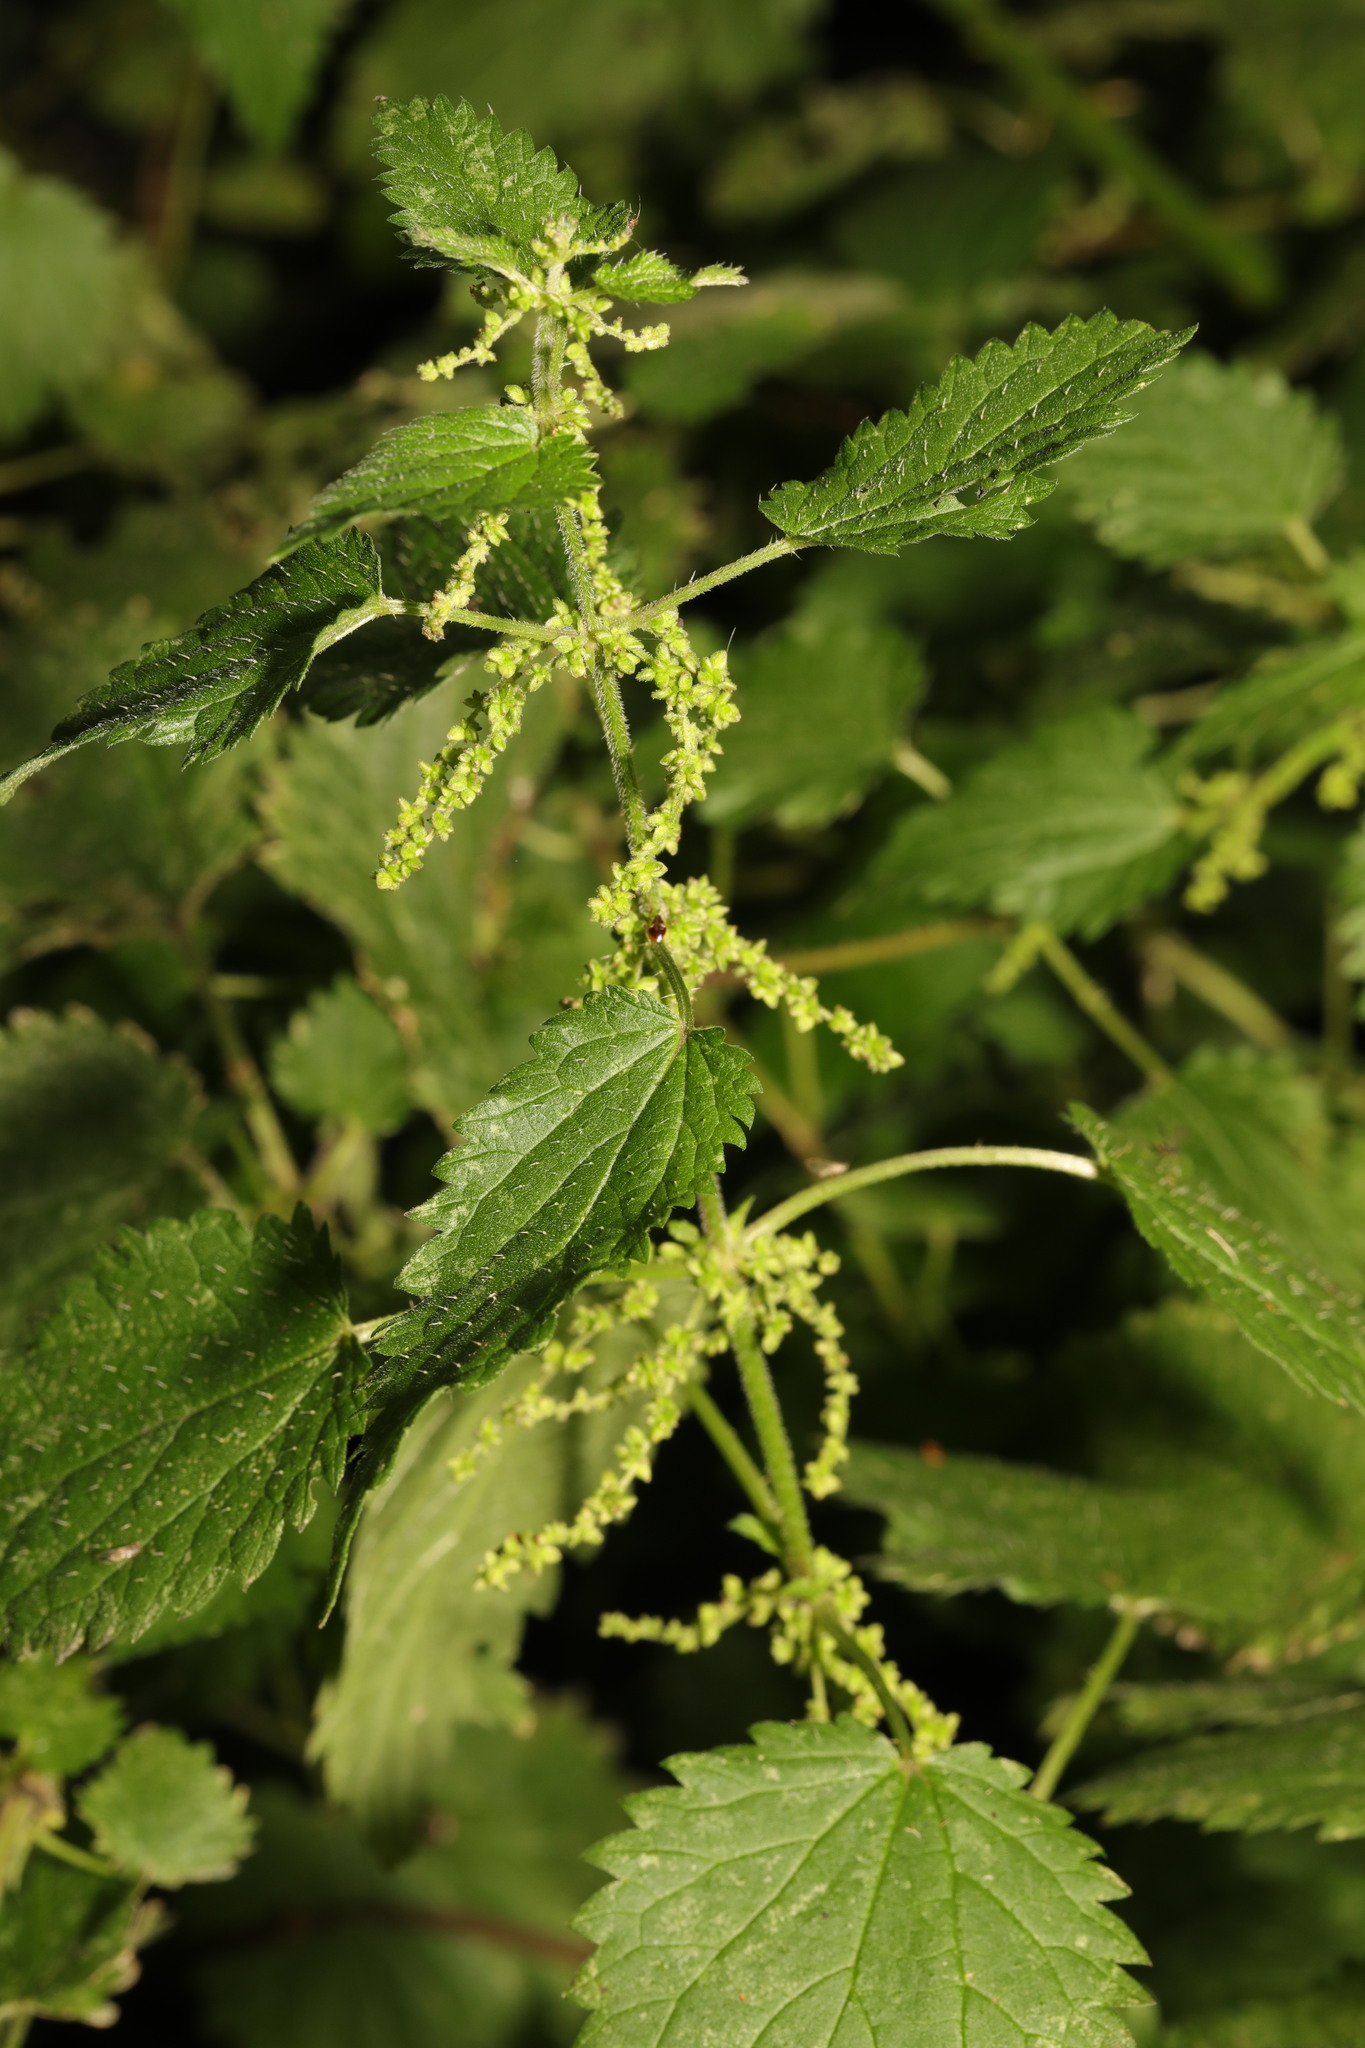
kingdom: Plantae
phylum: Tracheophyta
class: Magnoliopsida
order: Rosales
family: Urticaceae
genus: Urtica
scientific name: Urtica dioica
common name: Common nettle
